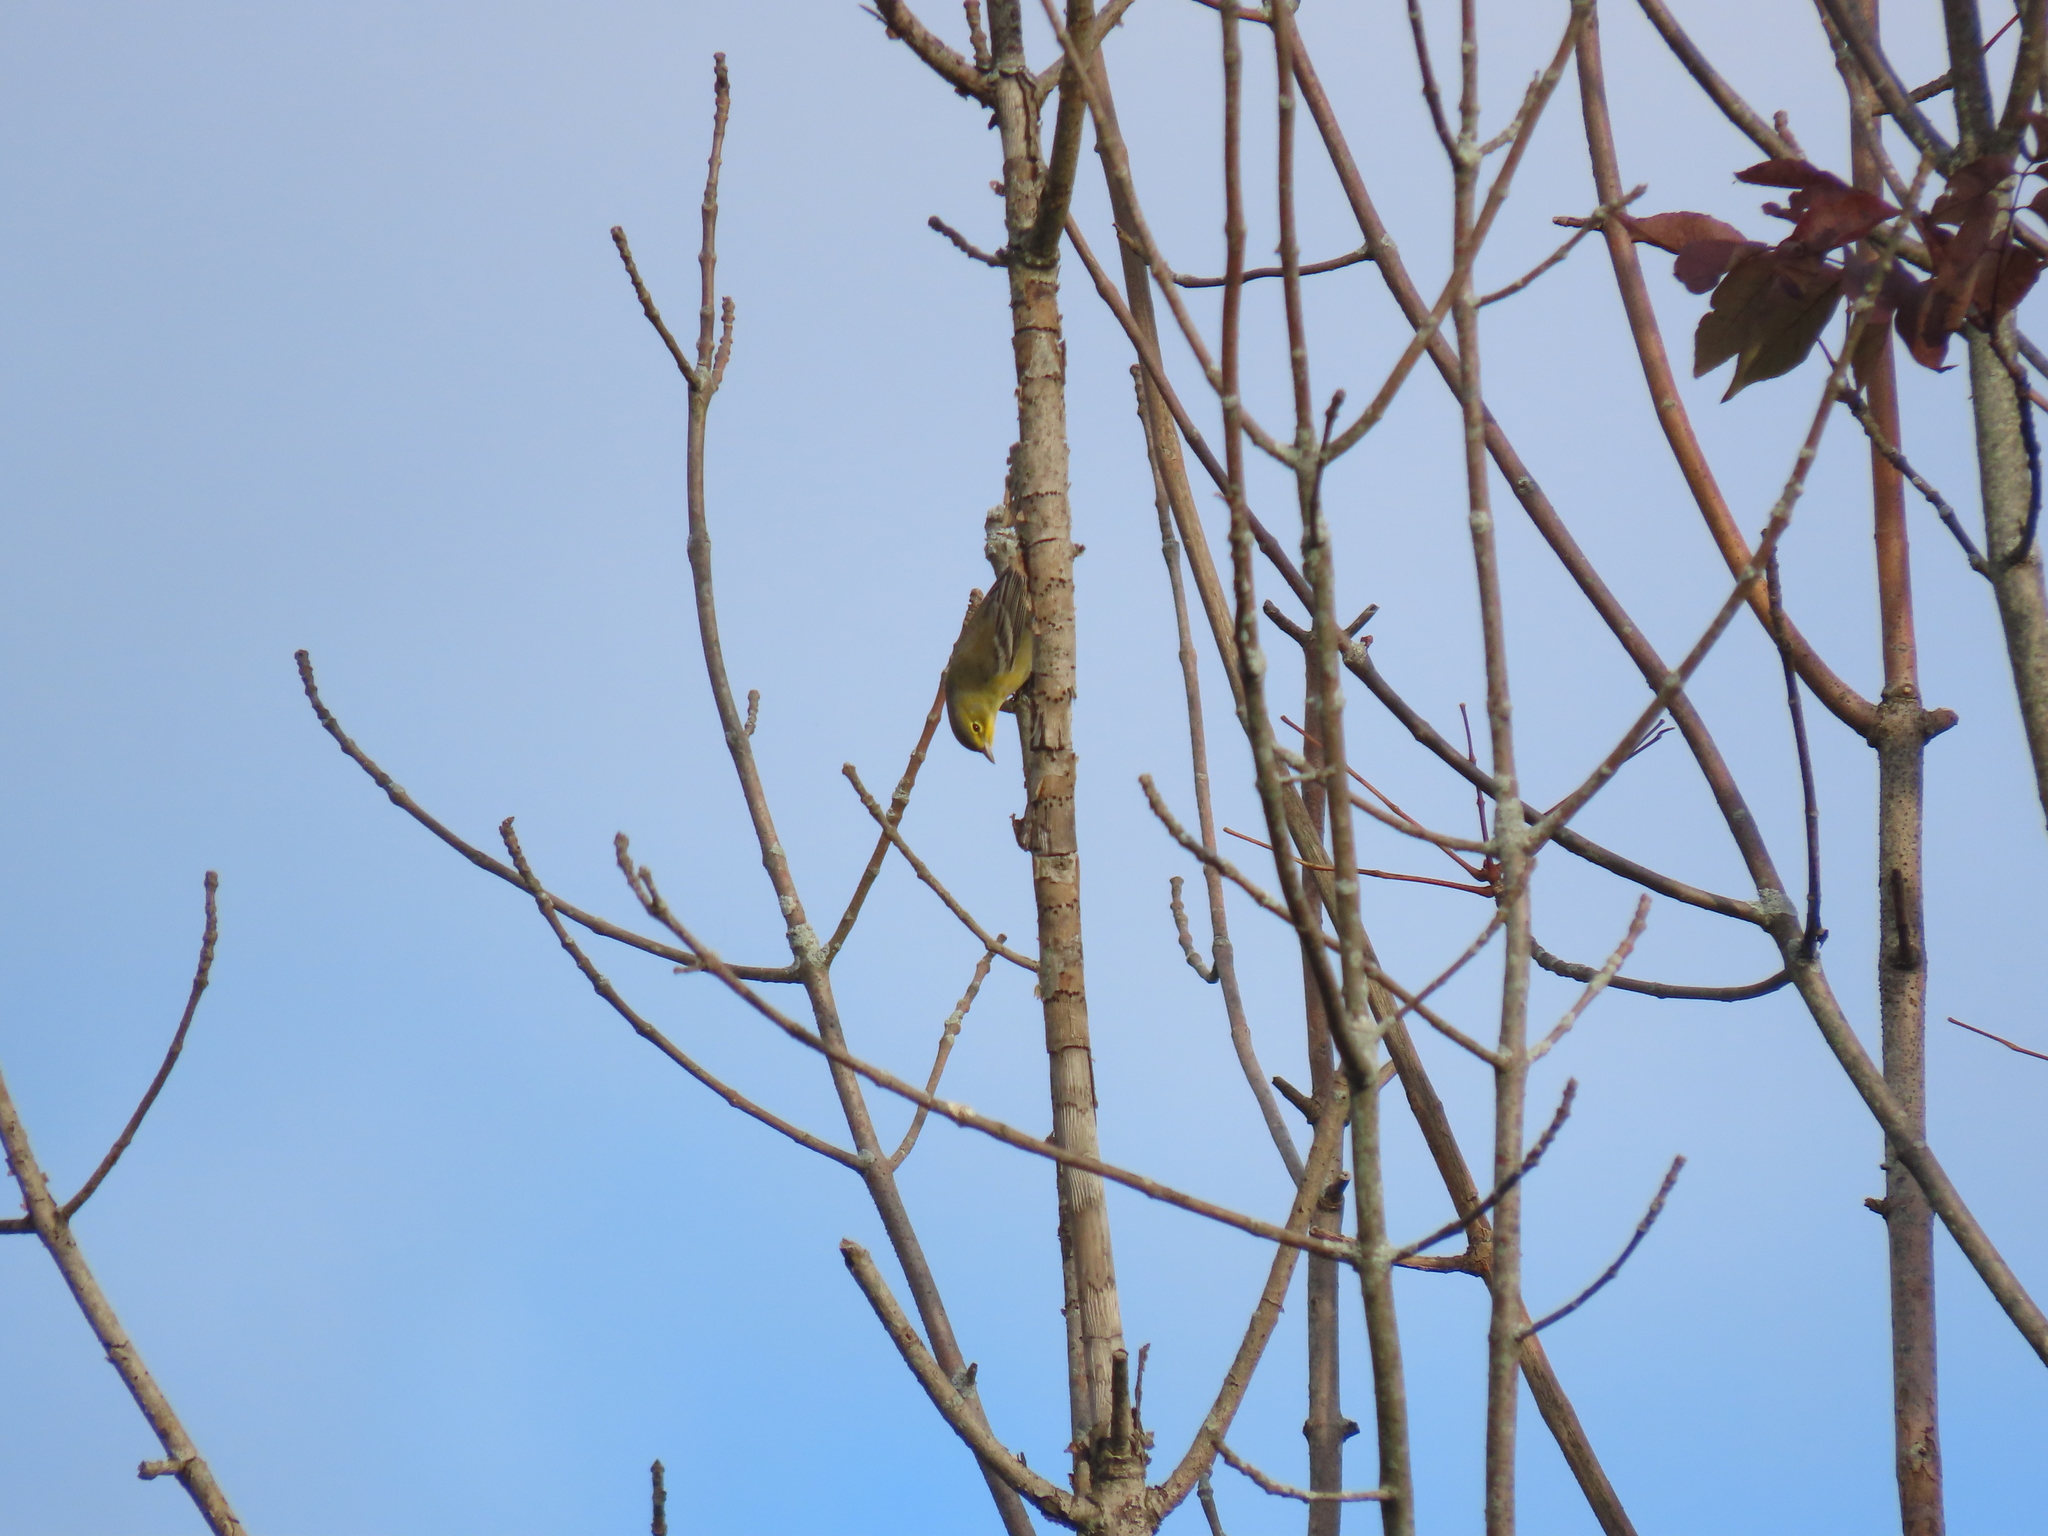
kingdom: Animalia
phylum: Chordata
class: Aves
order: Passeriformes
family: Parulidae
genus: Setophaga
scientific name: Setophaga pinus
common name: Pine warbler
